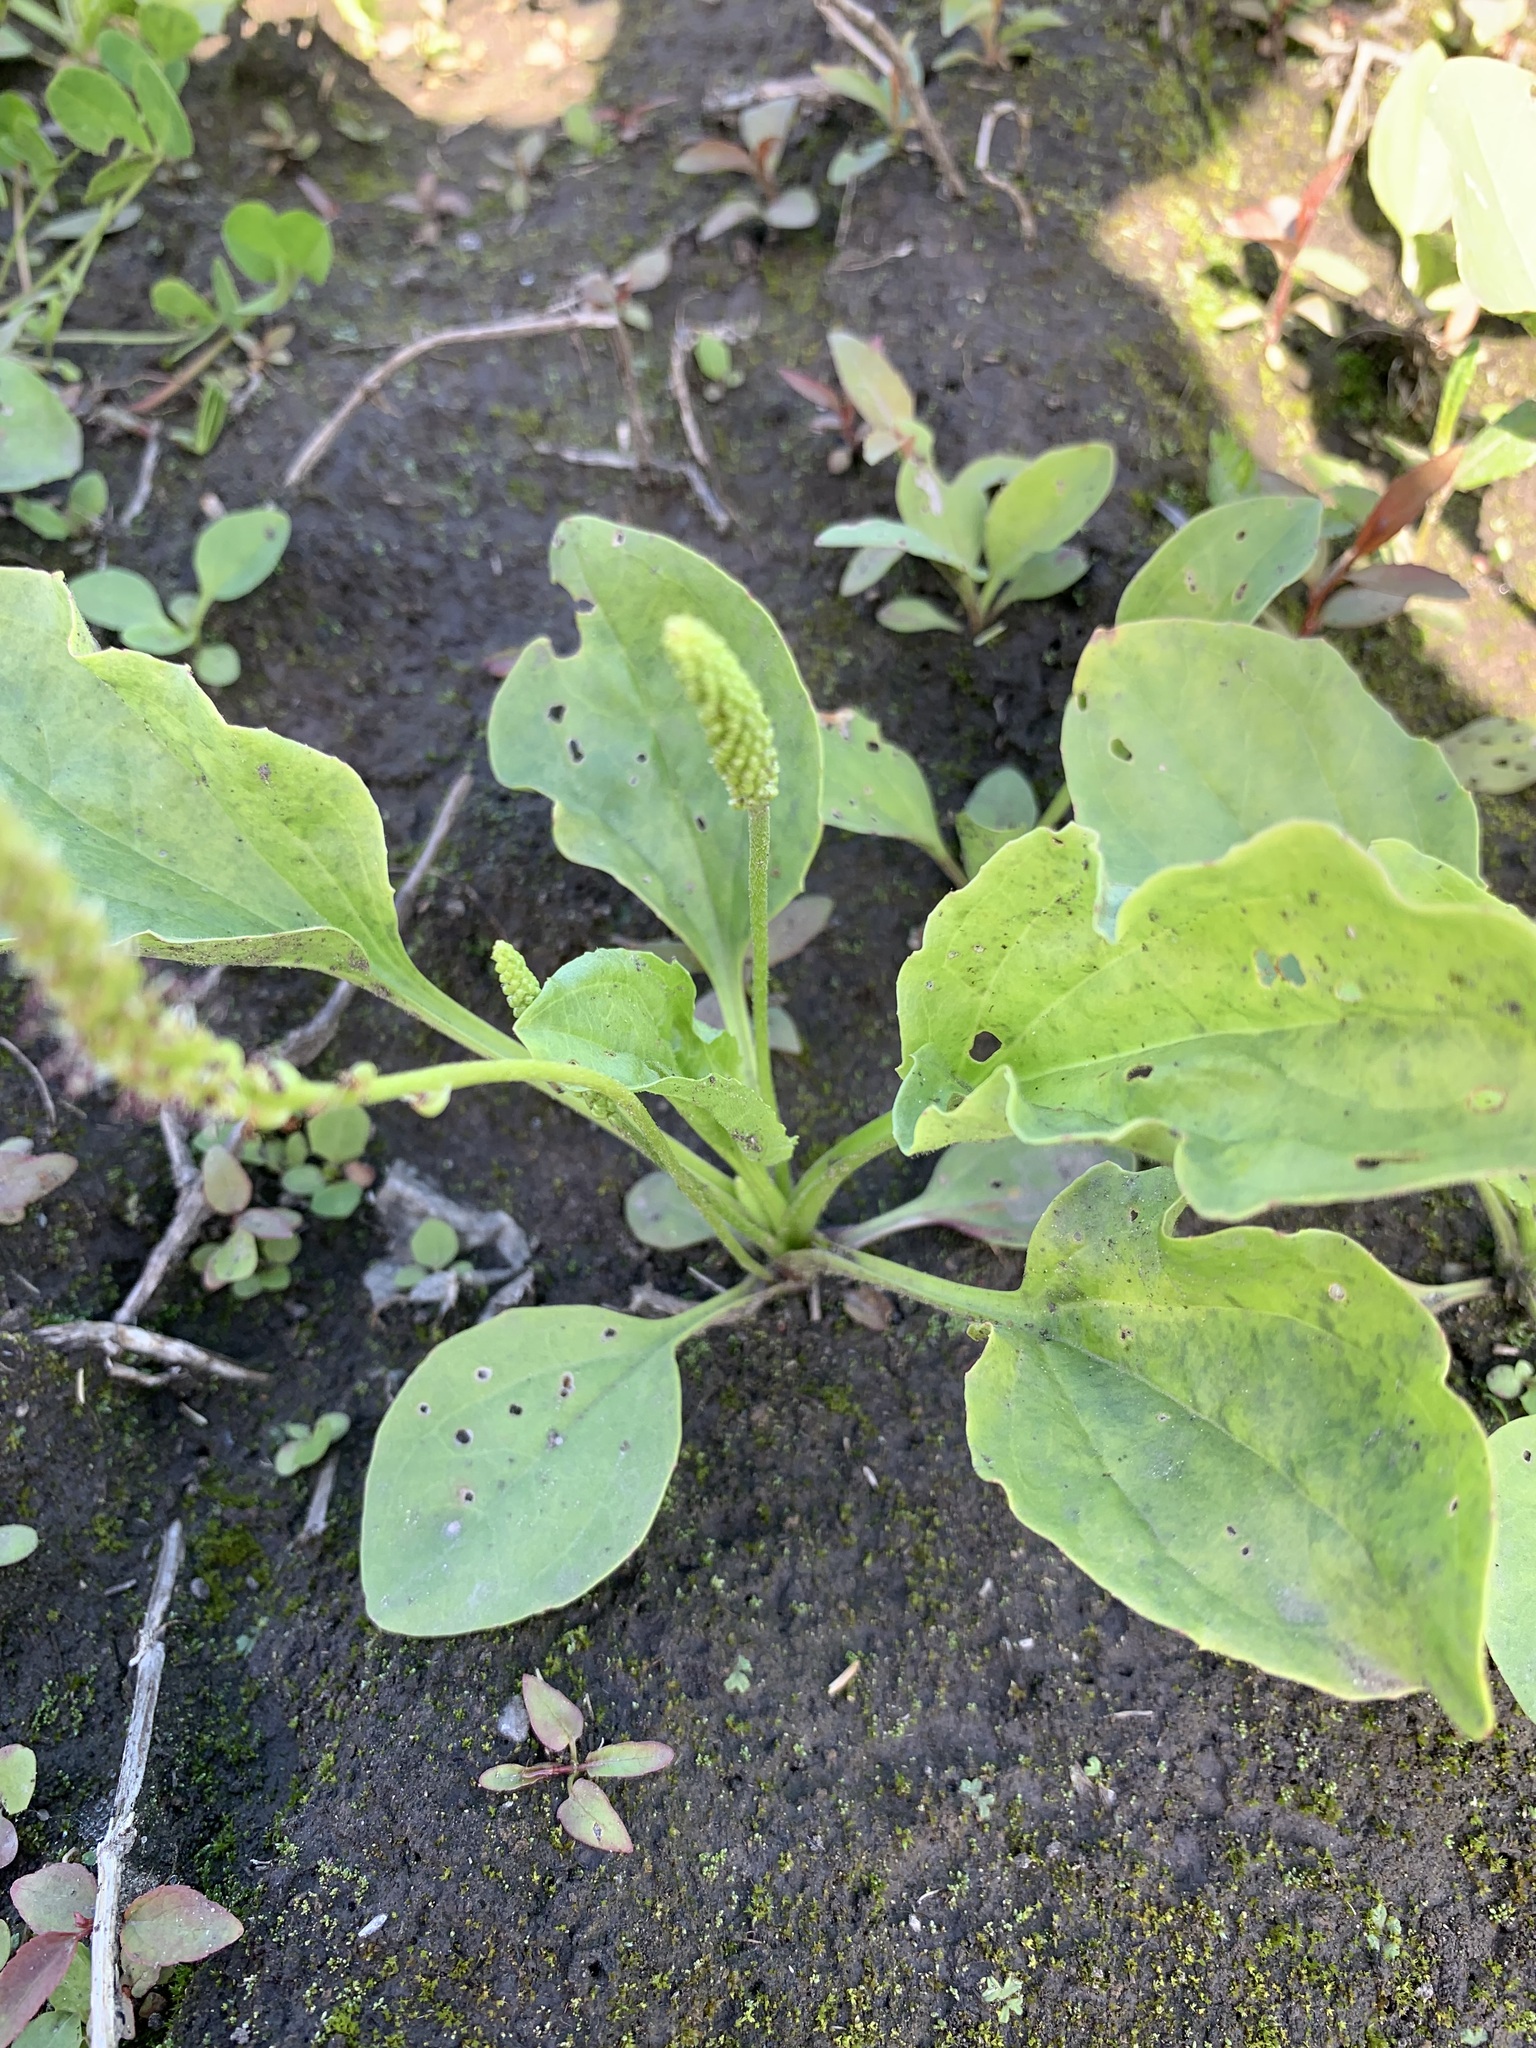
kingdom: Plantae
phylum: Tracheophyta
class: Magnoliopsida
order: Lamiales
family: Plantaginaceae
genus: Plantago
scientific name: Plantago major
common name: Common plantain
